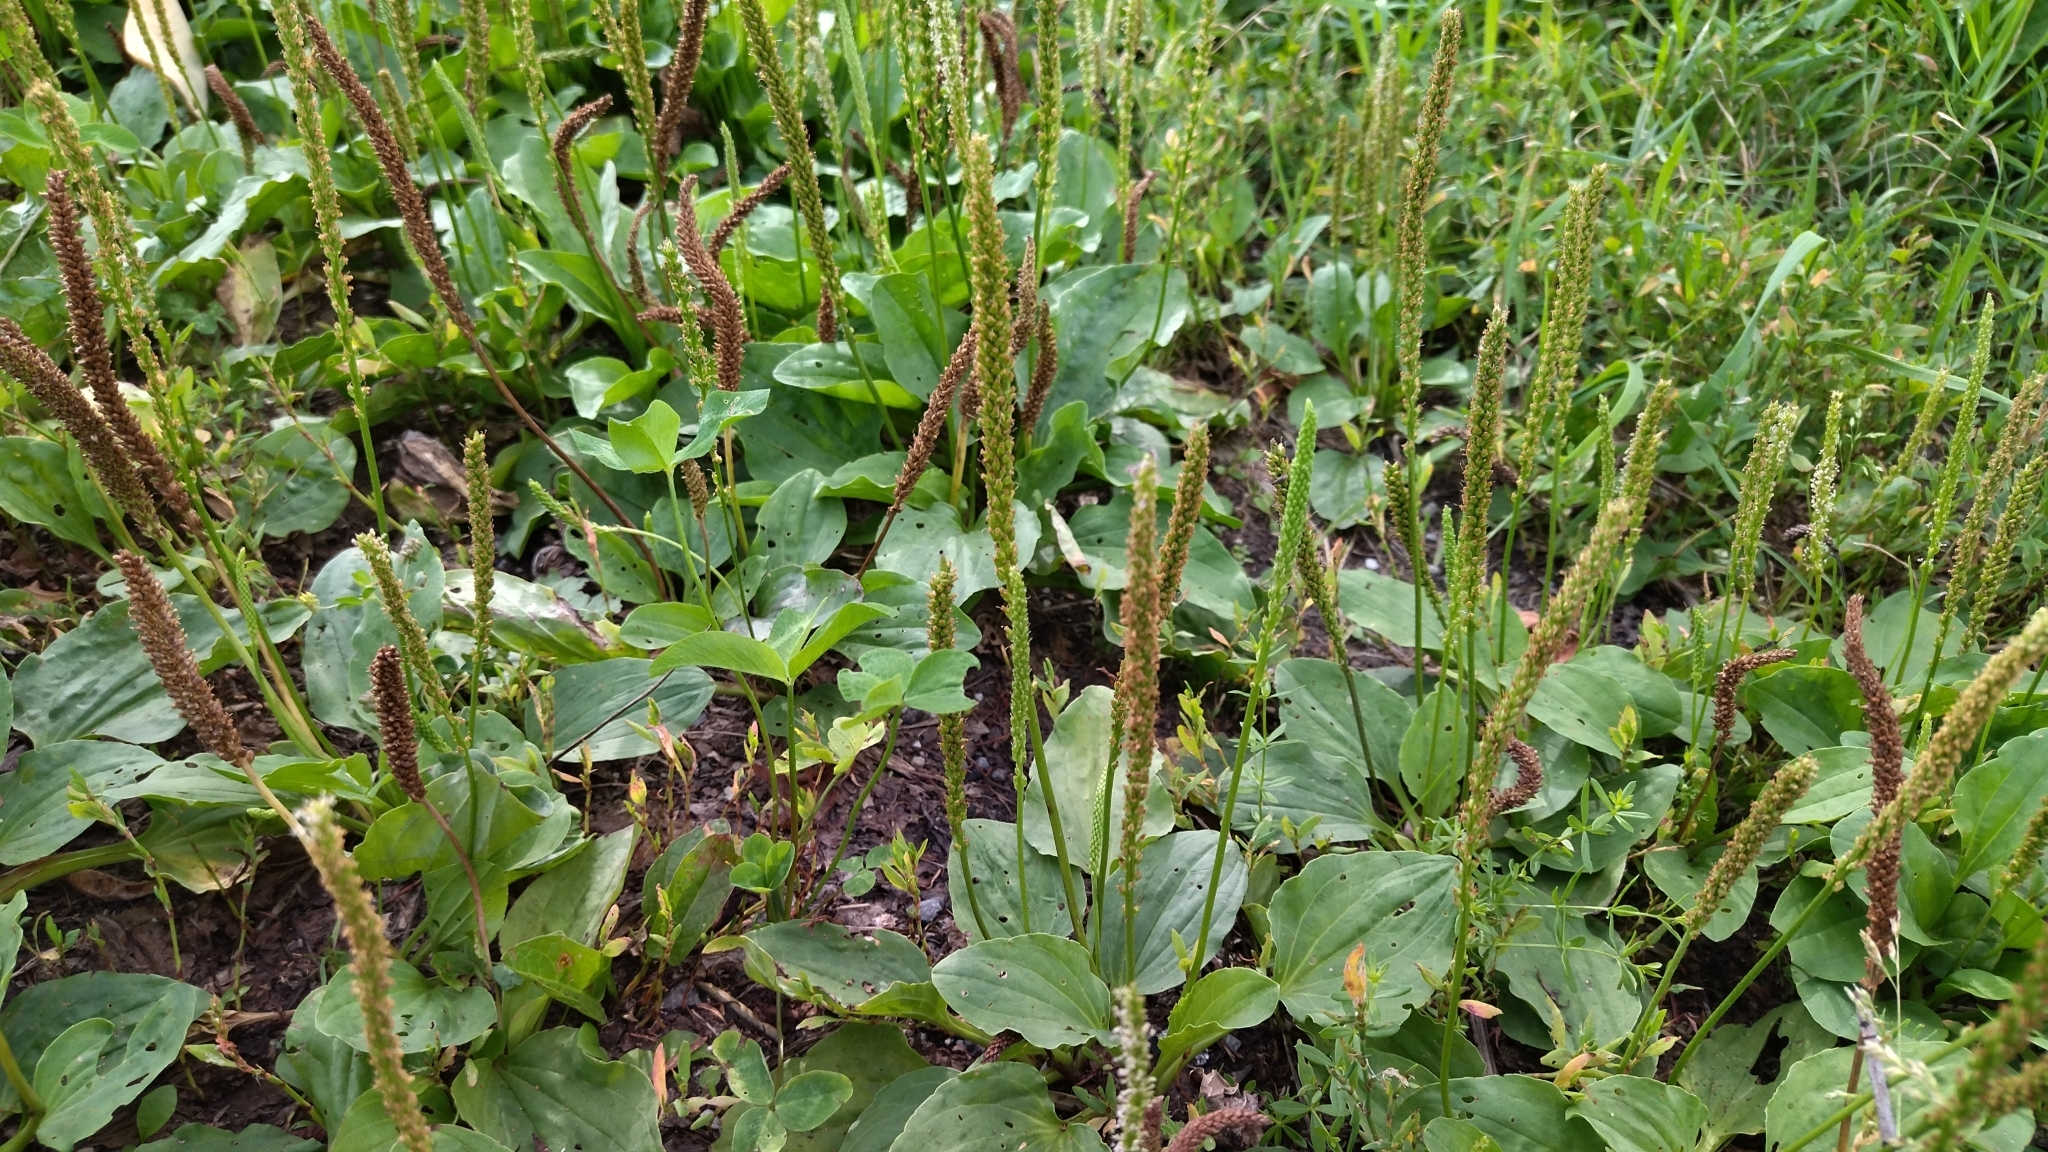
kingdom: Plantae
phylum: Tracheophyta
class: Magnoliopsida
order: Lamiales
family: Plantaginaceae
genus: Plantago
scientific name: Plantago major
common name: Common plantain
